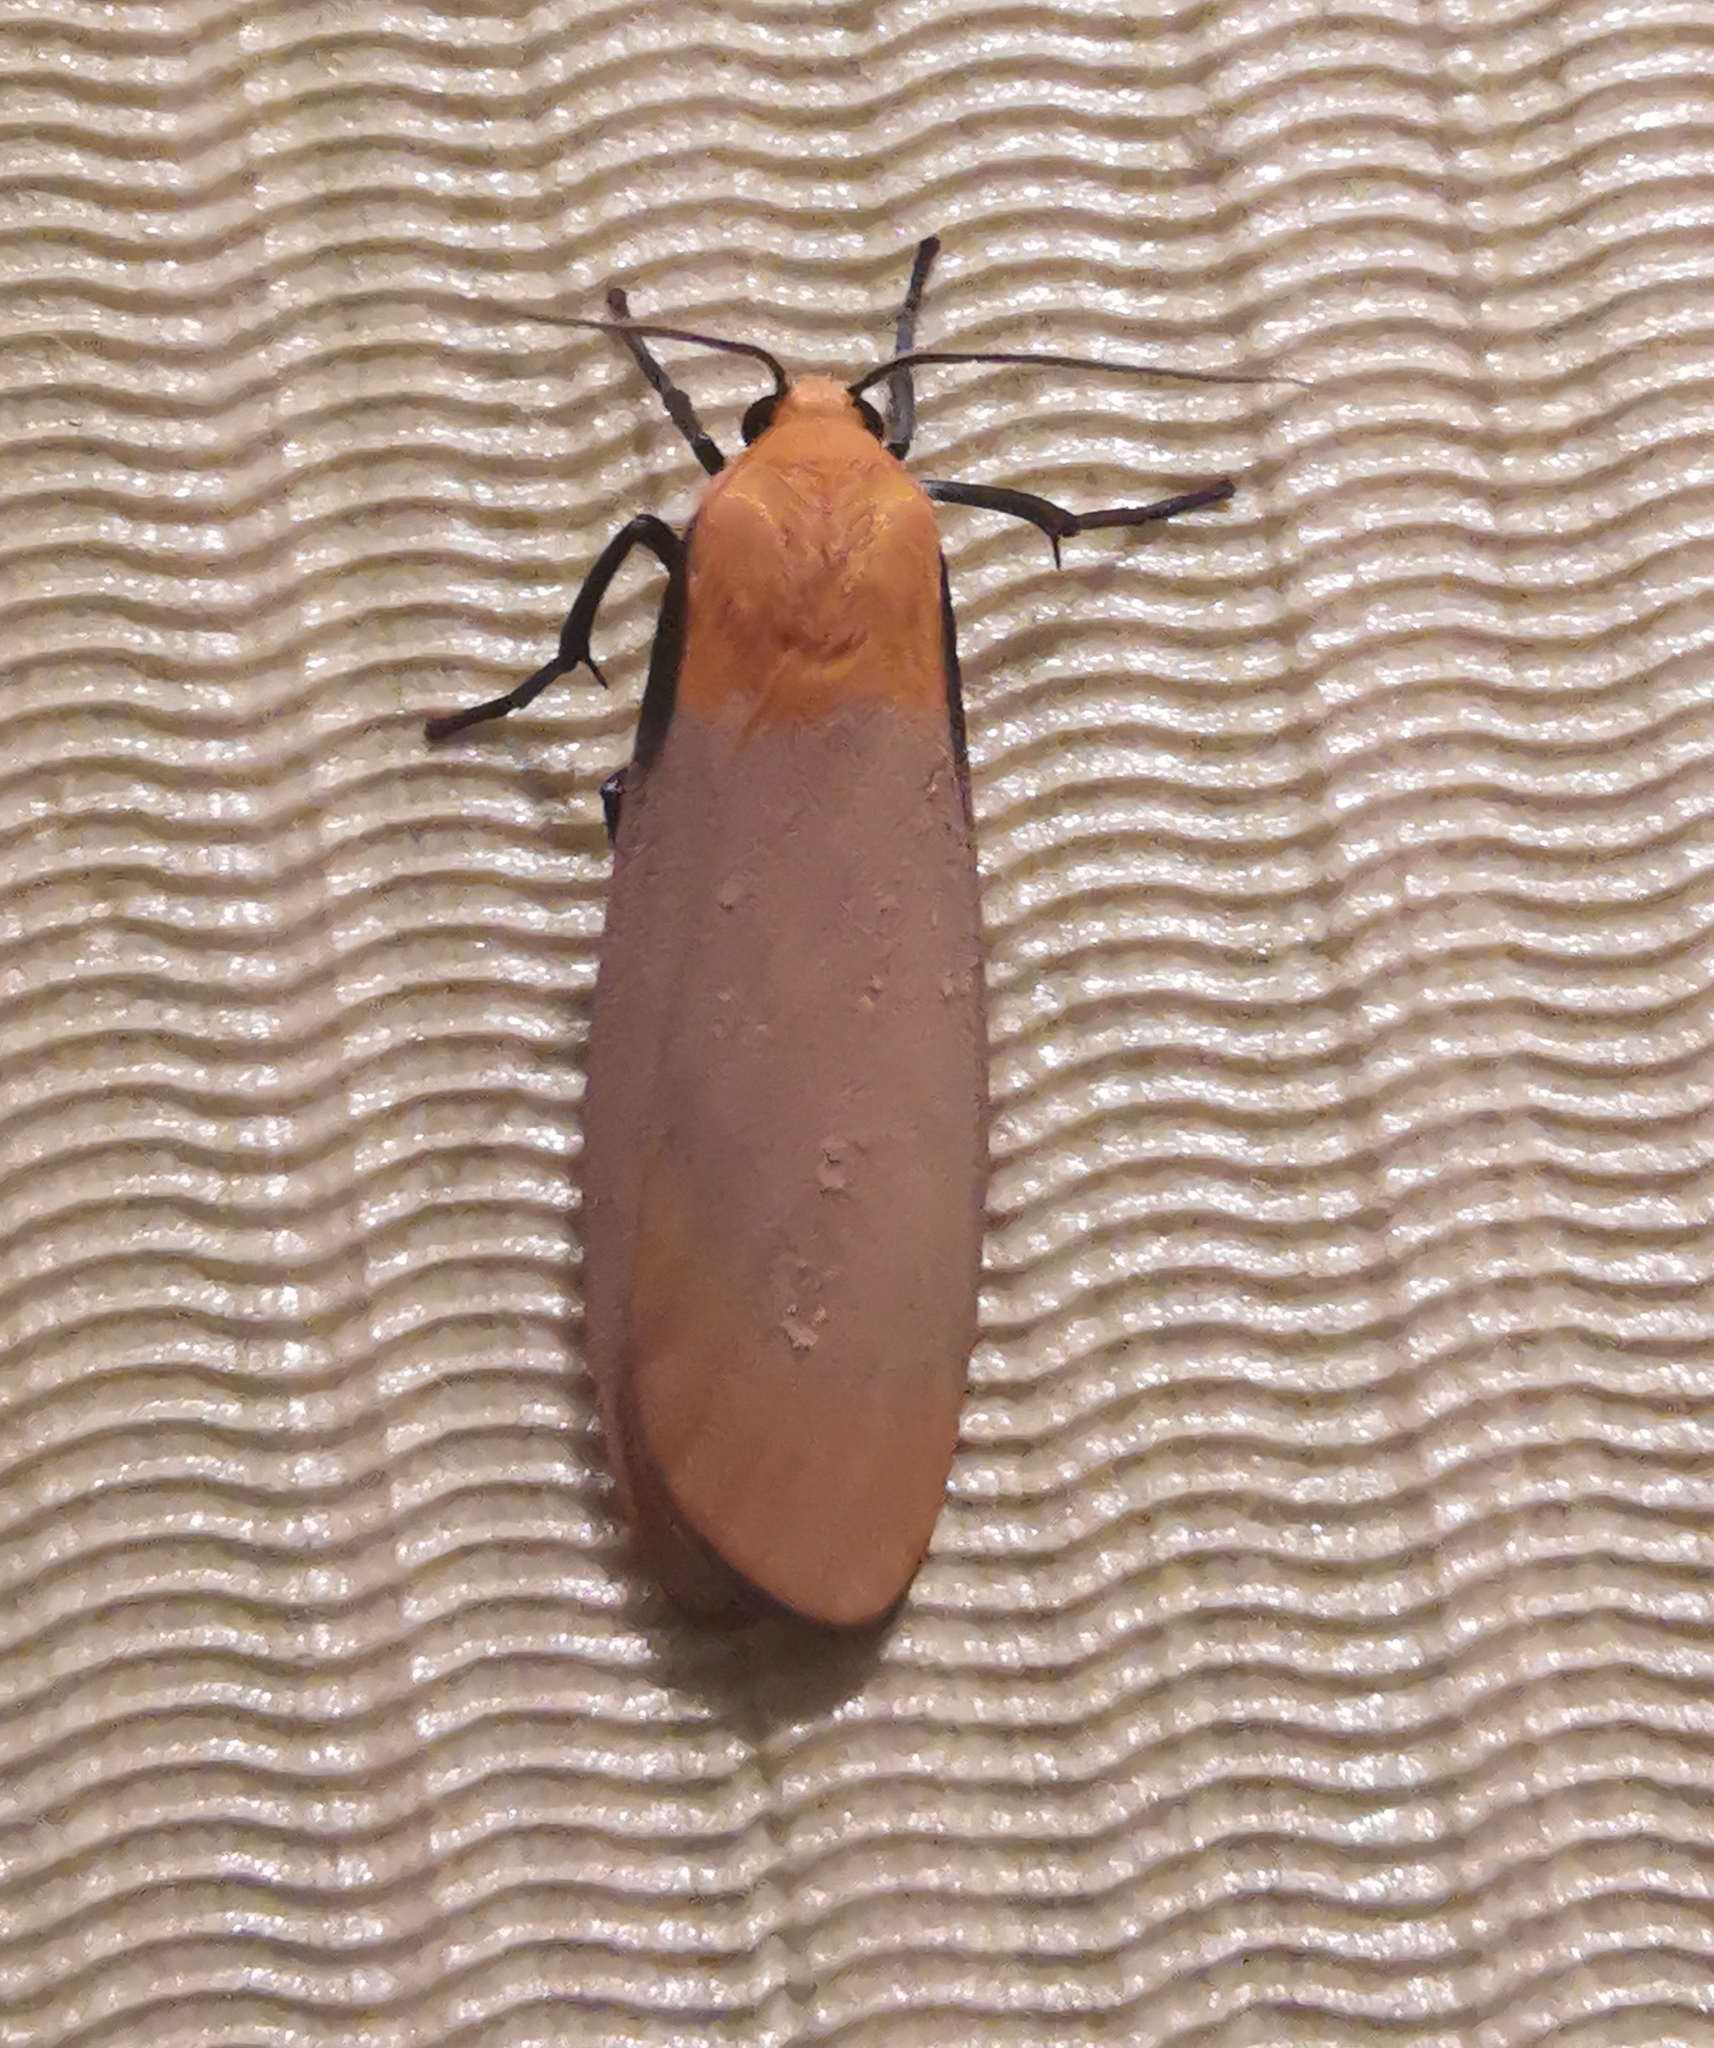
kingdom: Animalia
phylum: Arthropoda
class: Insecta
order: Lepidoptera
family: Erebidae
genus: Lithosia
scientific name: Lithosia quadra
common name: Four-spotted footman
